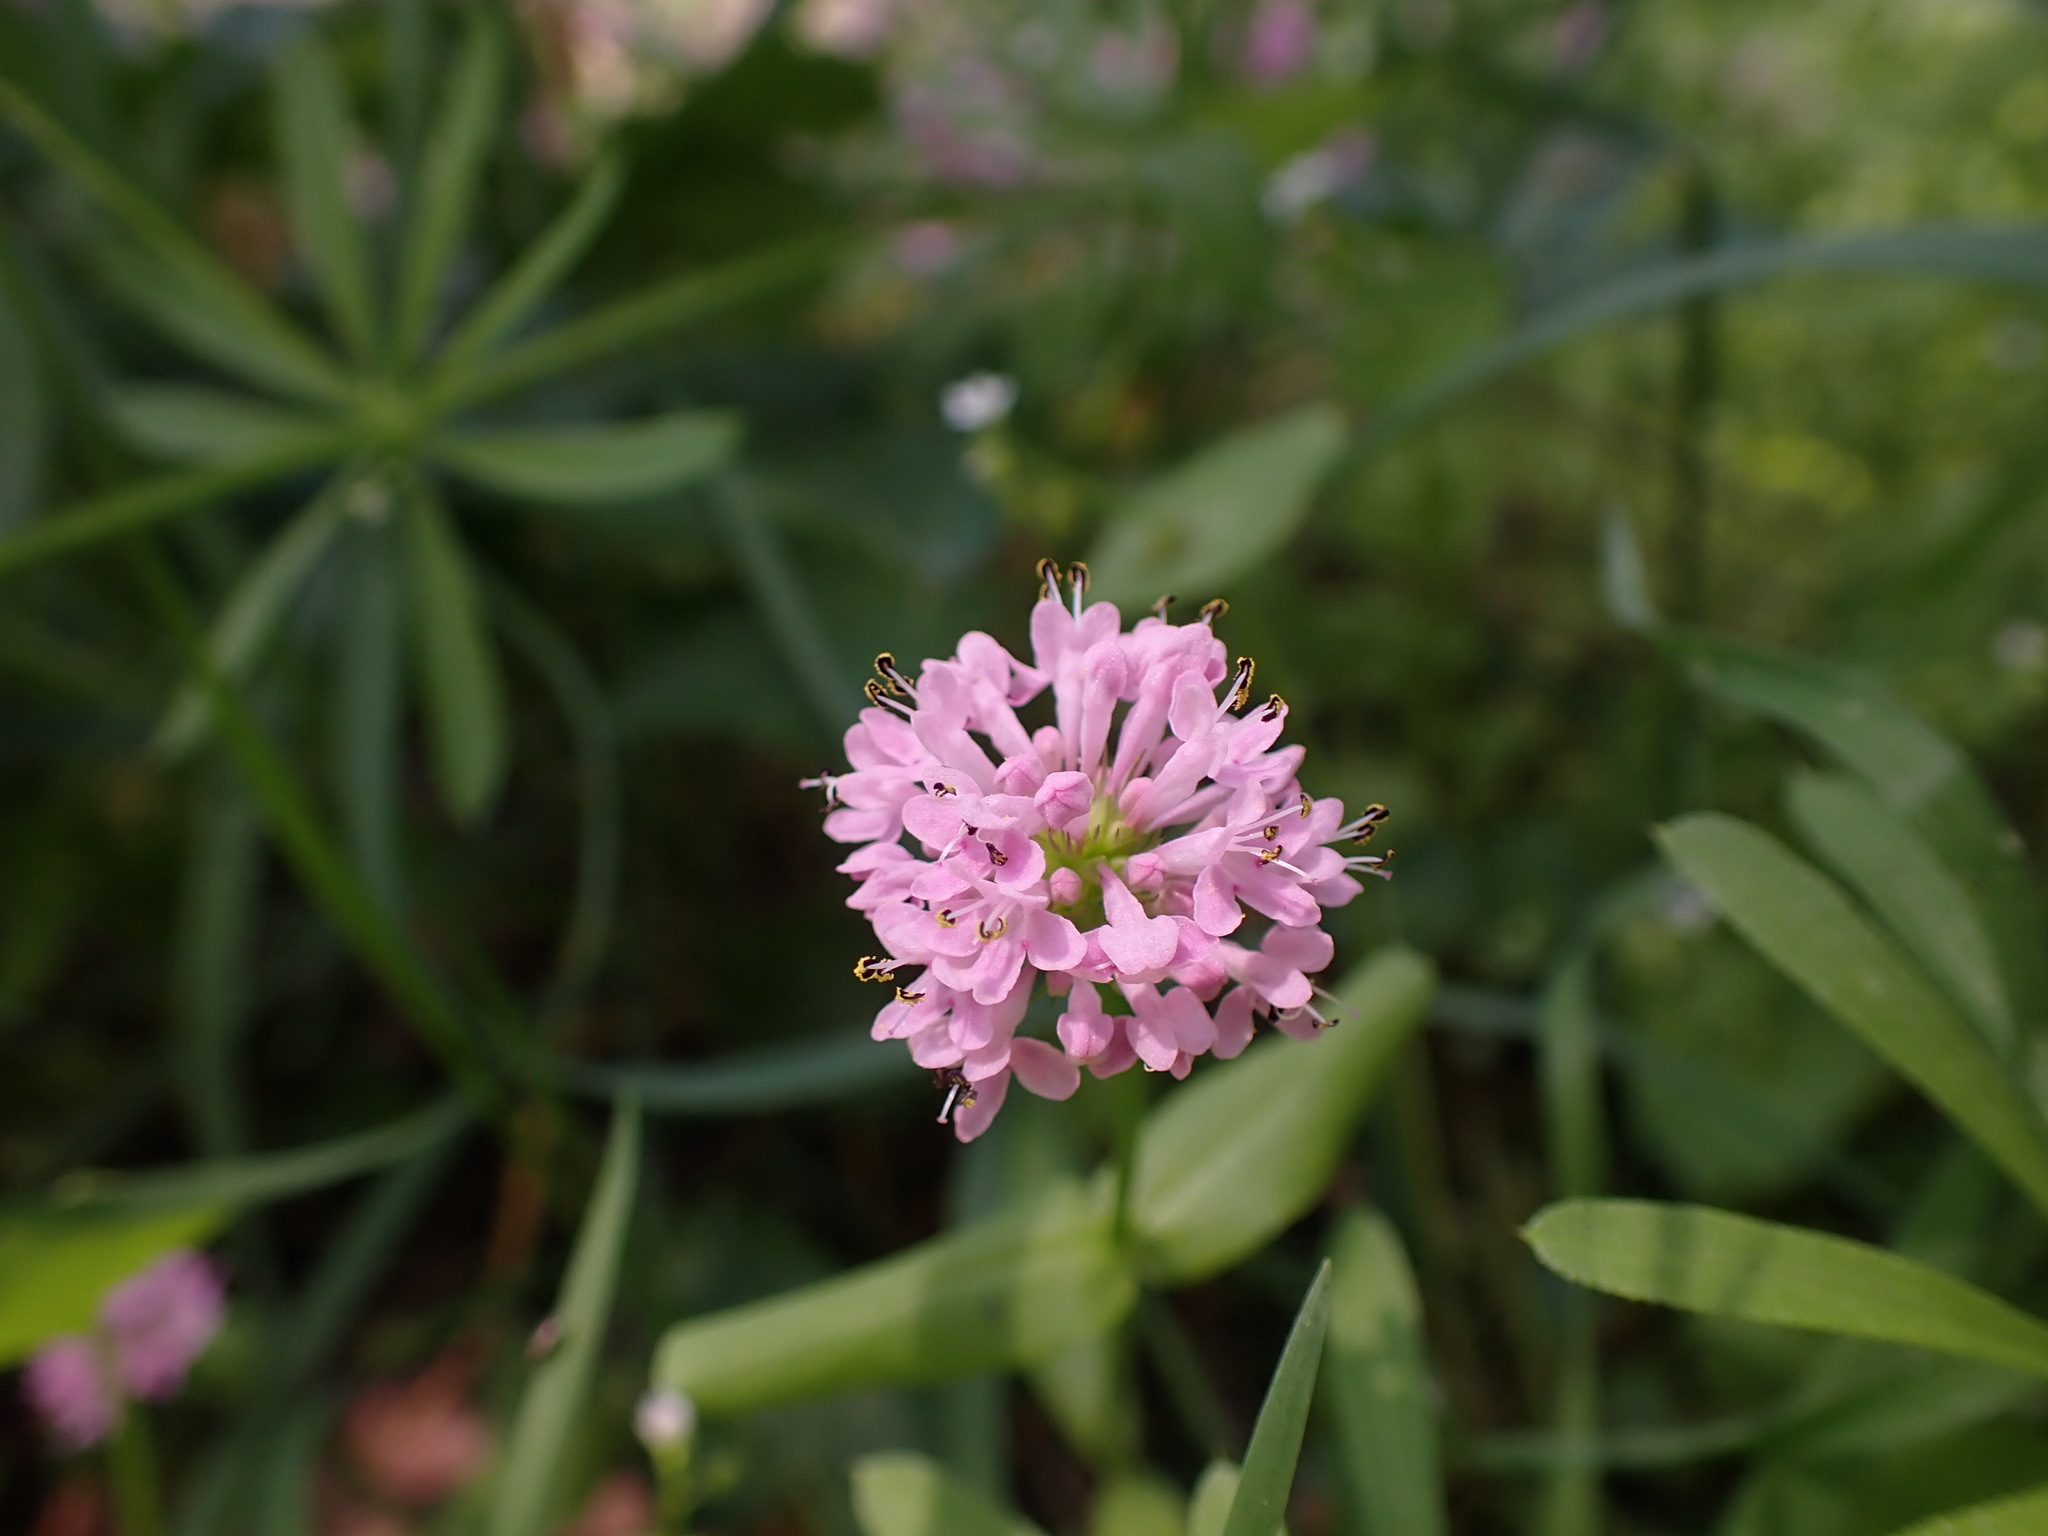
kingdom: Plantae
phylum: Tracheophyta
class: Magnoliopsida
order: Dipsacales
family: Caprifoliaceae
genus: Plectritis
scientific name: Plectritis congesta
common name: Pink plectritis
